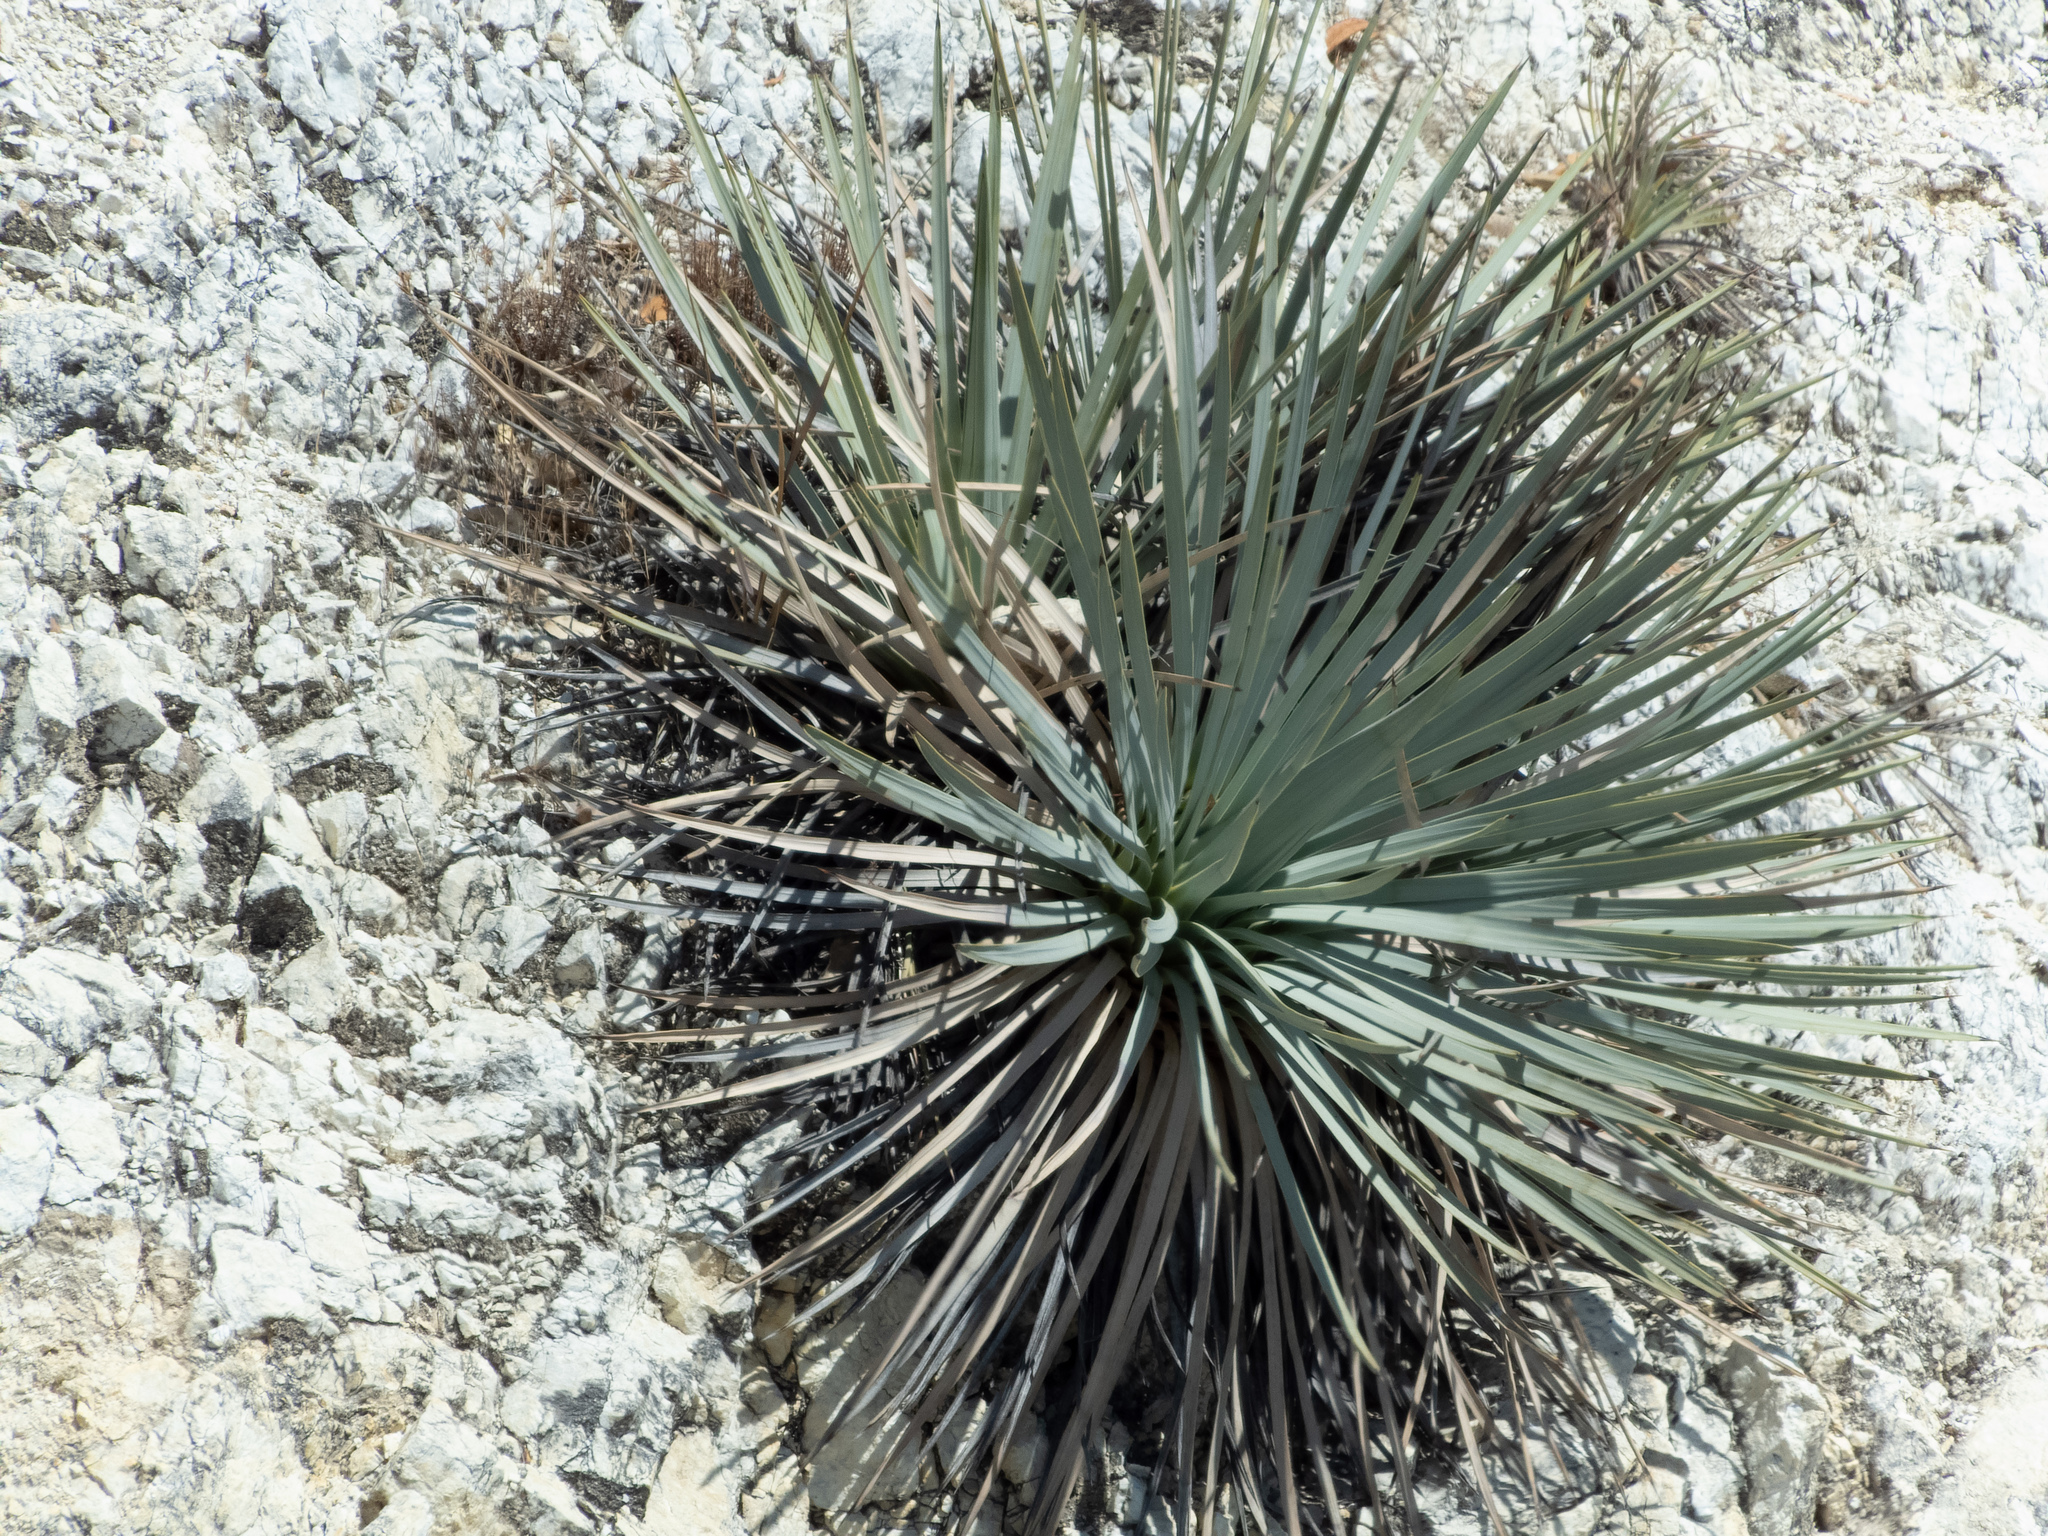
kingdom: Plantae
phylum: Tracheophyta
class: Liliopsida
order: Asparagales
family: Asparagaceae
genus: Hesperoyucca
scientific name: Hesperoyucca whipplei
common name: Our lord's-candle
